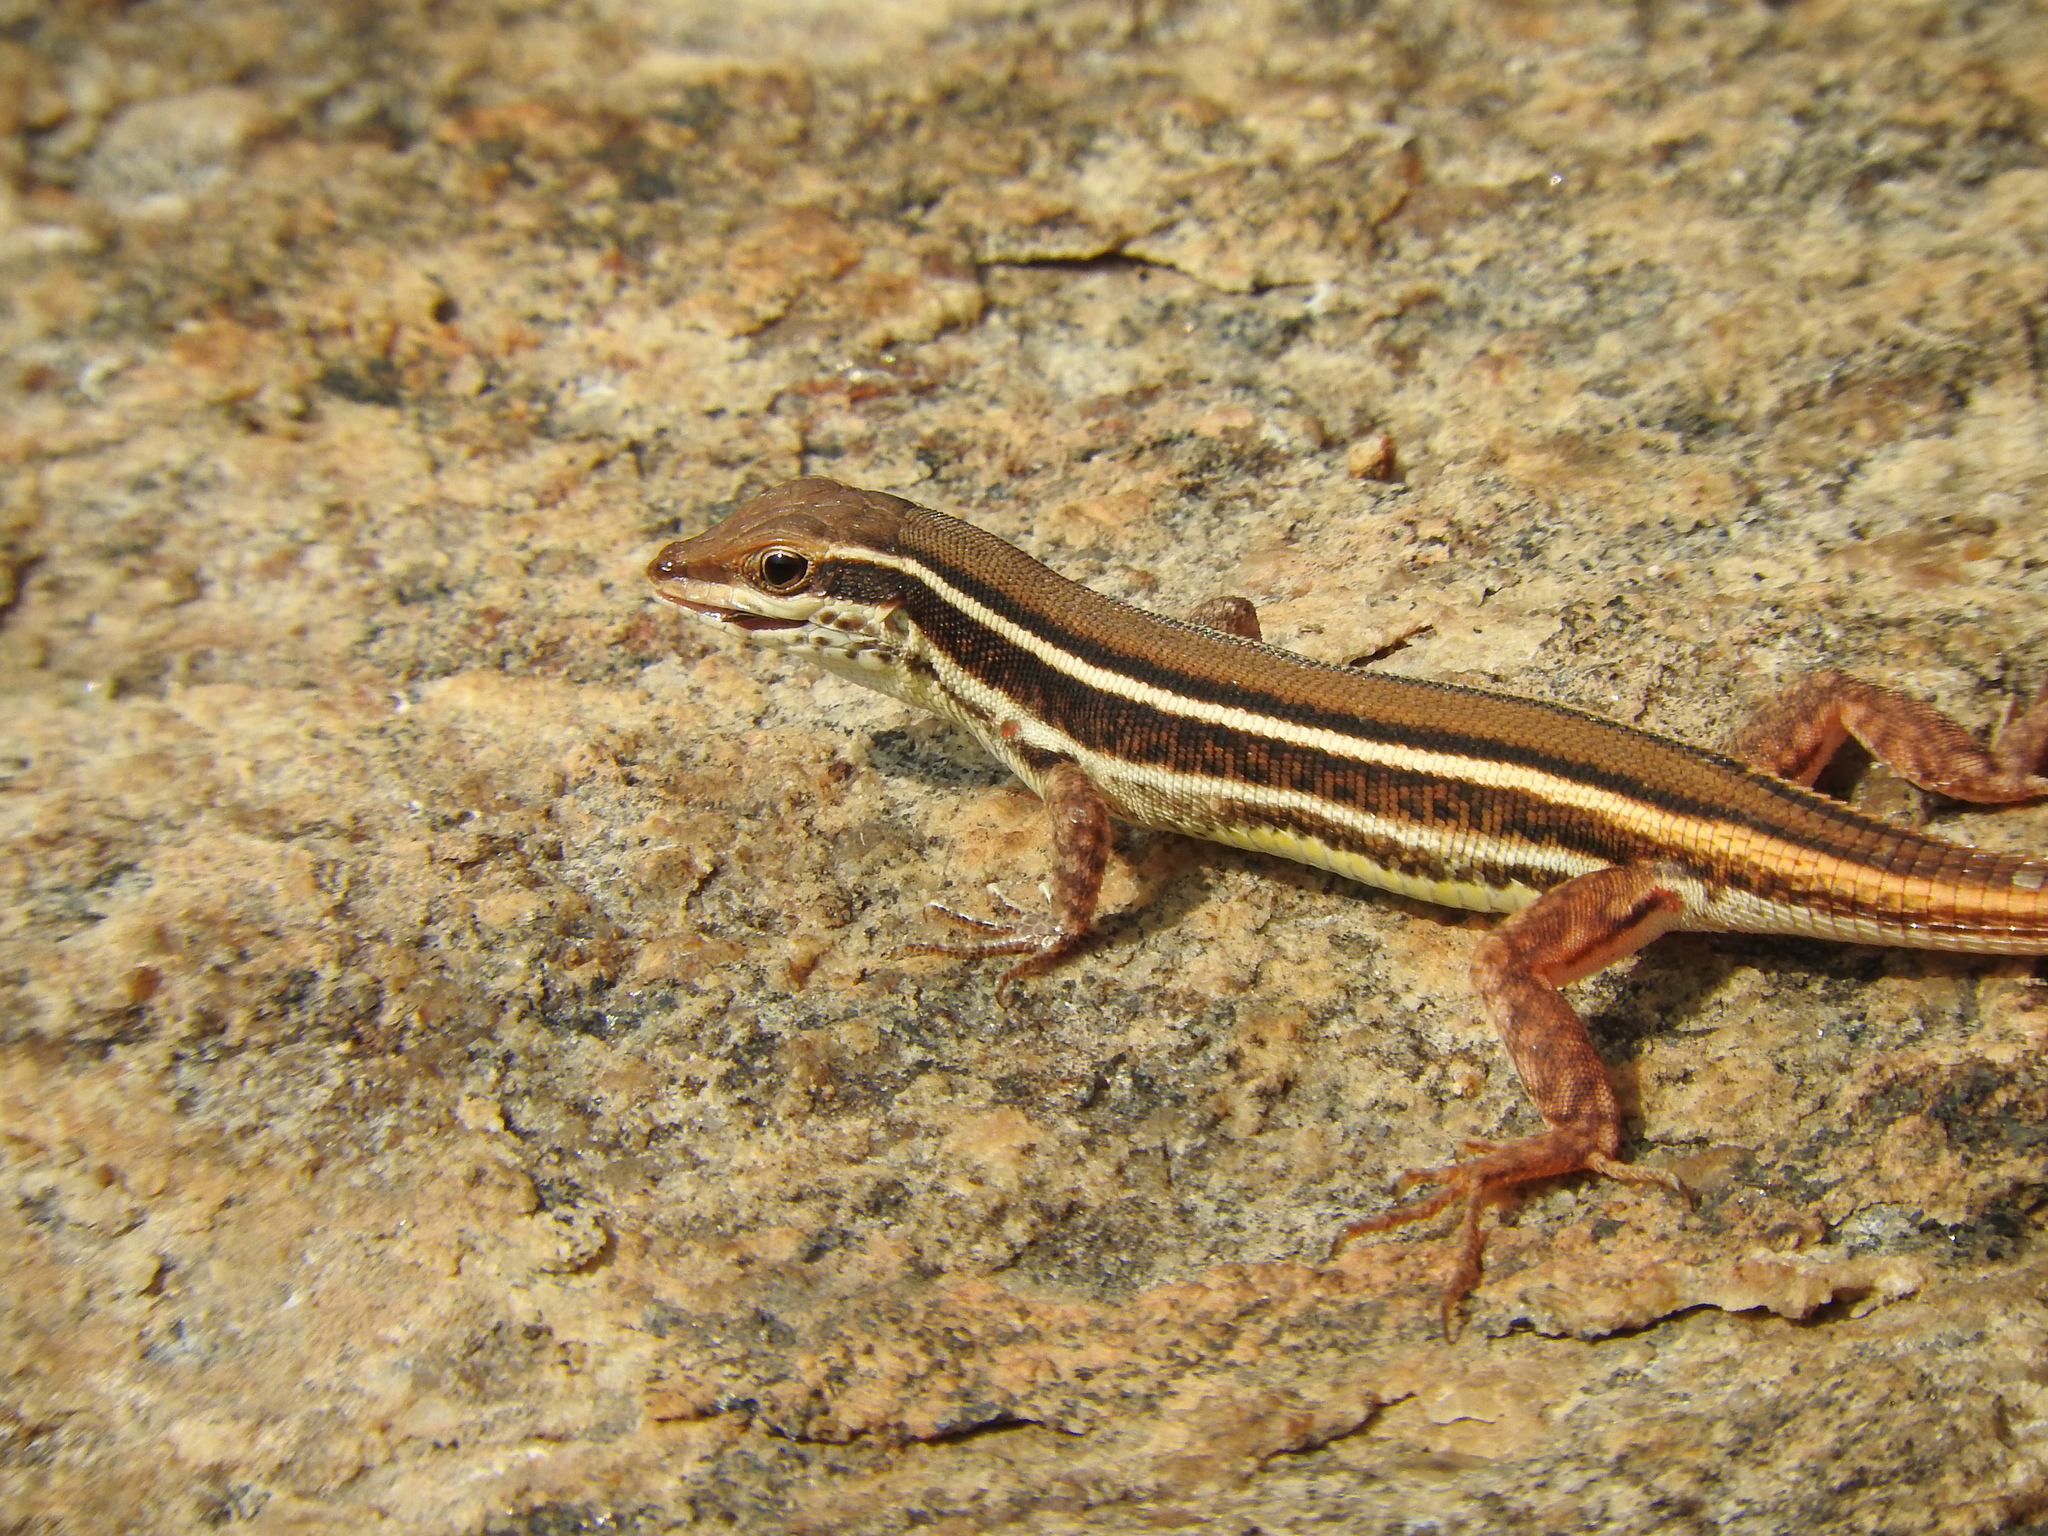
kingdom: Animalia
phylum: Chordata
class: Squamata
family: Lacertidae
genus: Ophisops
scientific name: Ophisops leschenaultii
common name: Leschenault's cabrita
